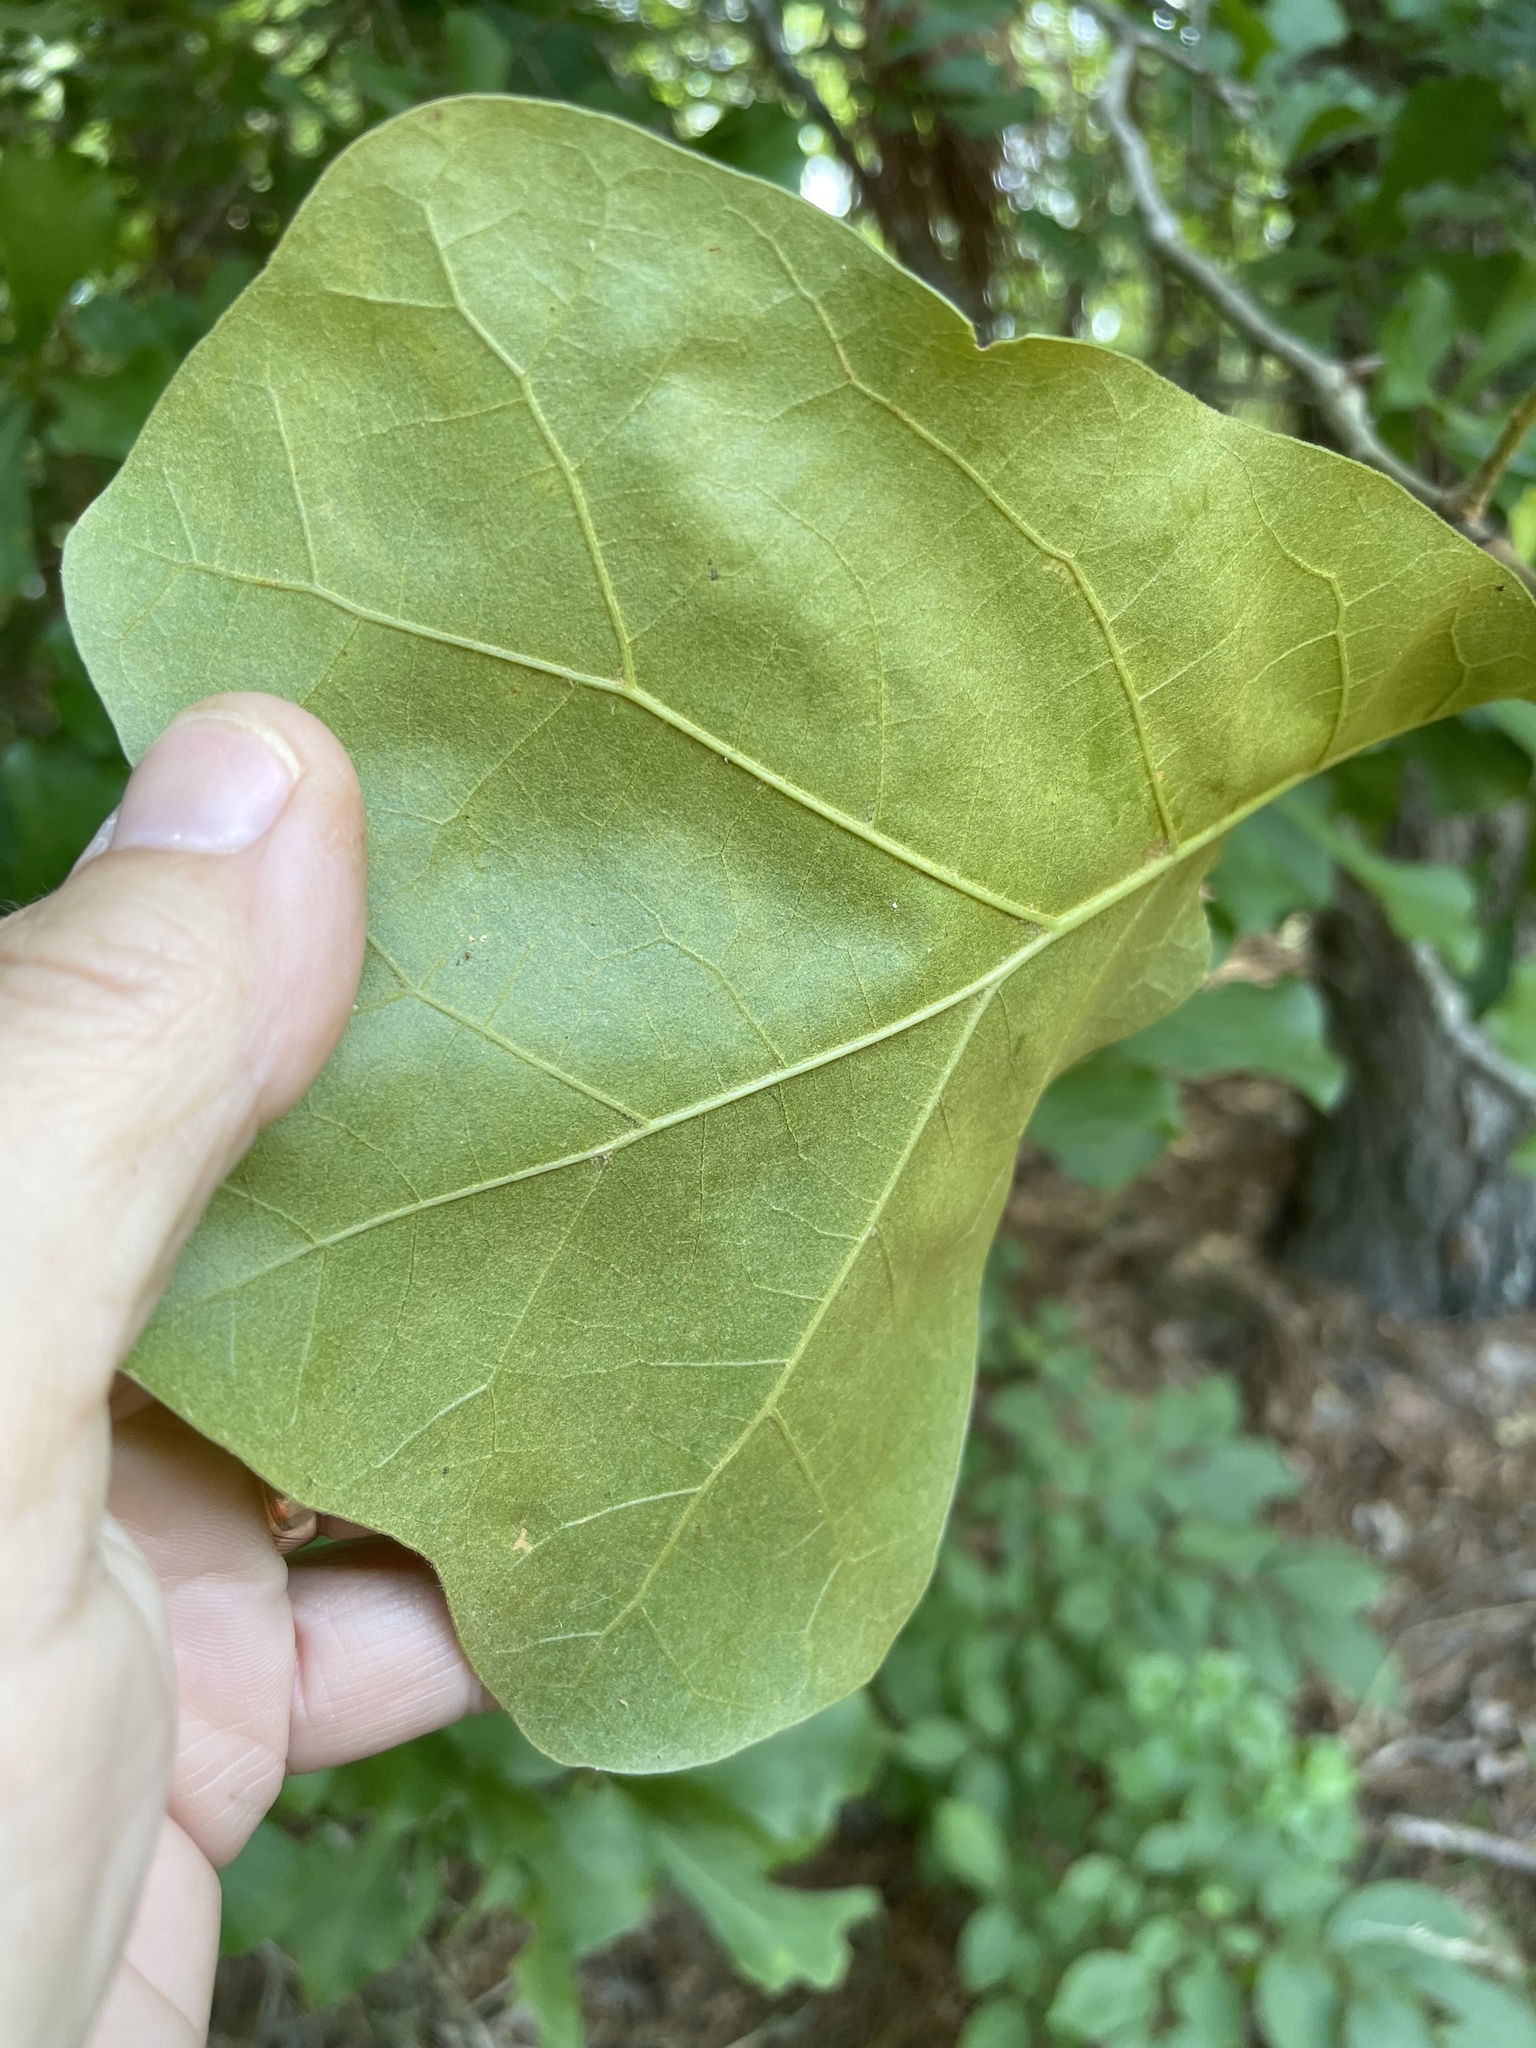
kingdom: Plantae
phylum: Tracheophyta
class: Magnoliopsida
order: Fagales
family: Fagaceae
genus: Quercus
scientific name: Quercus marilandica
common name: Blackjack oak
